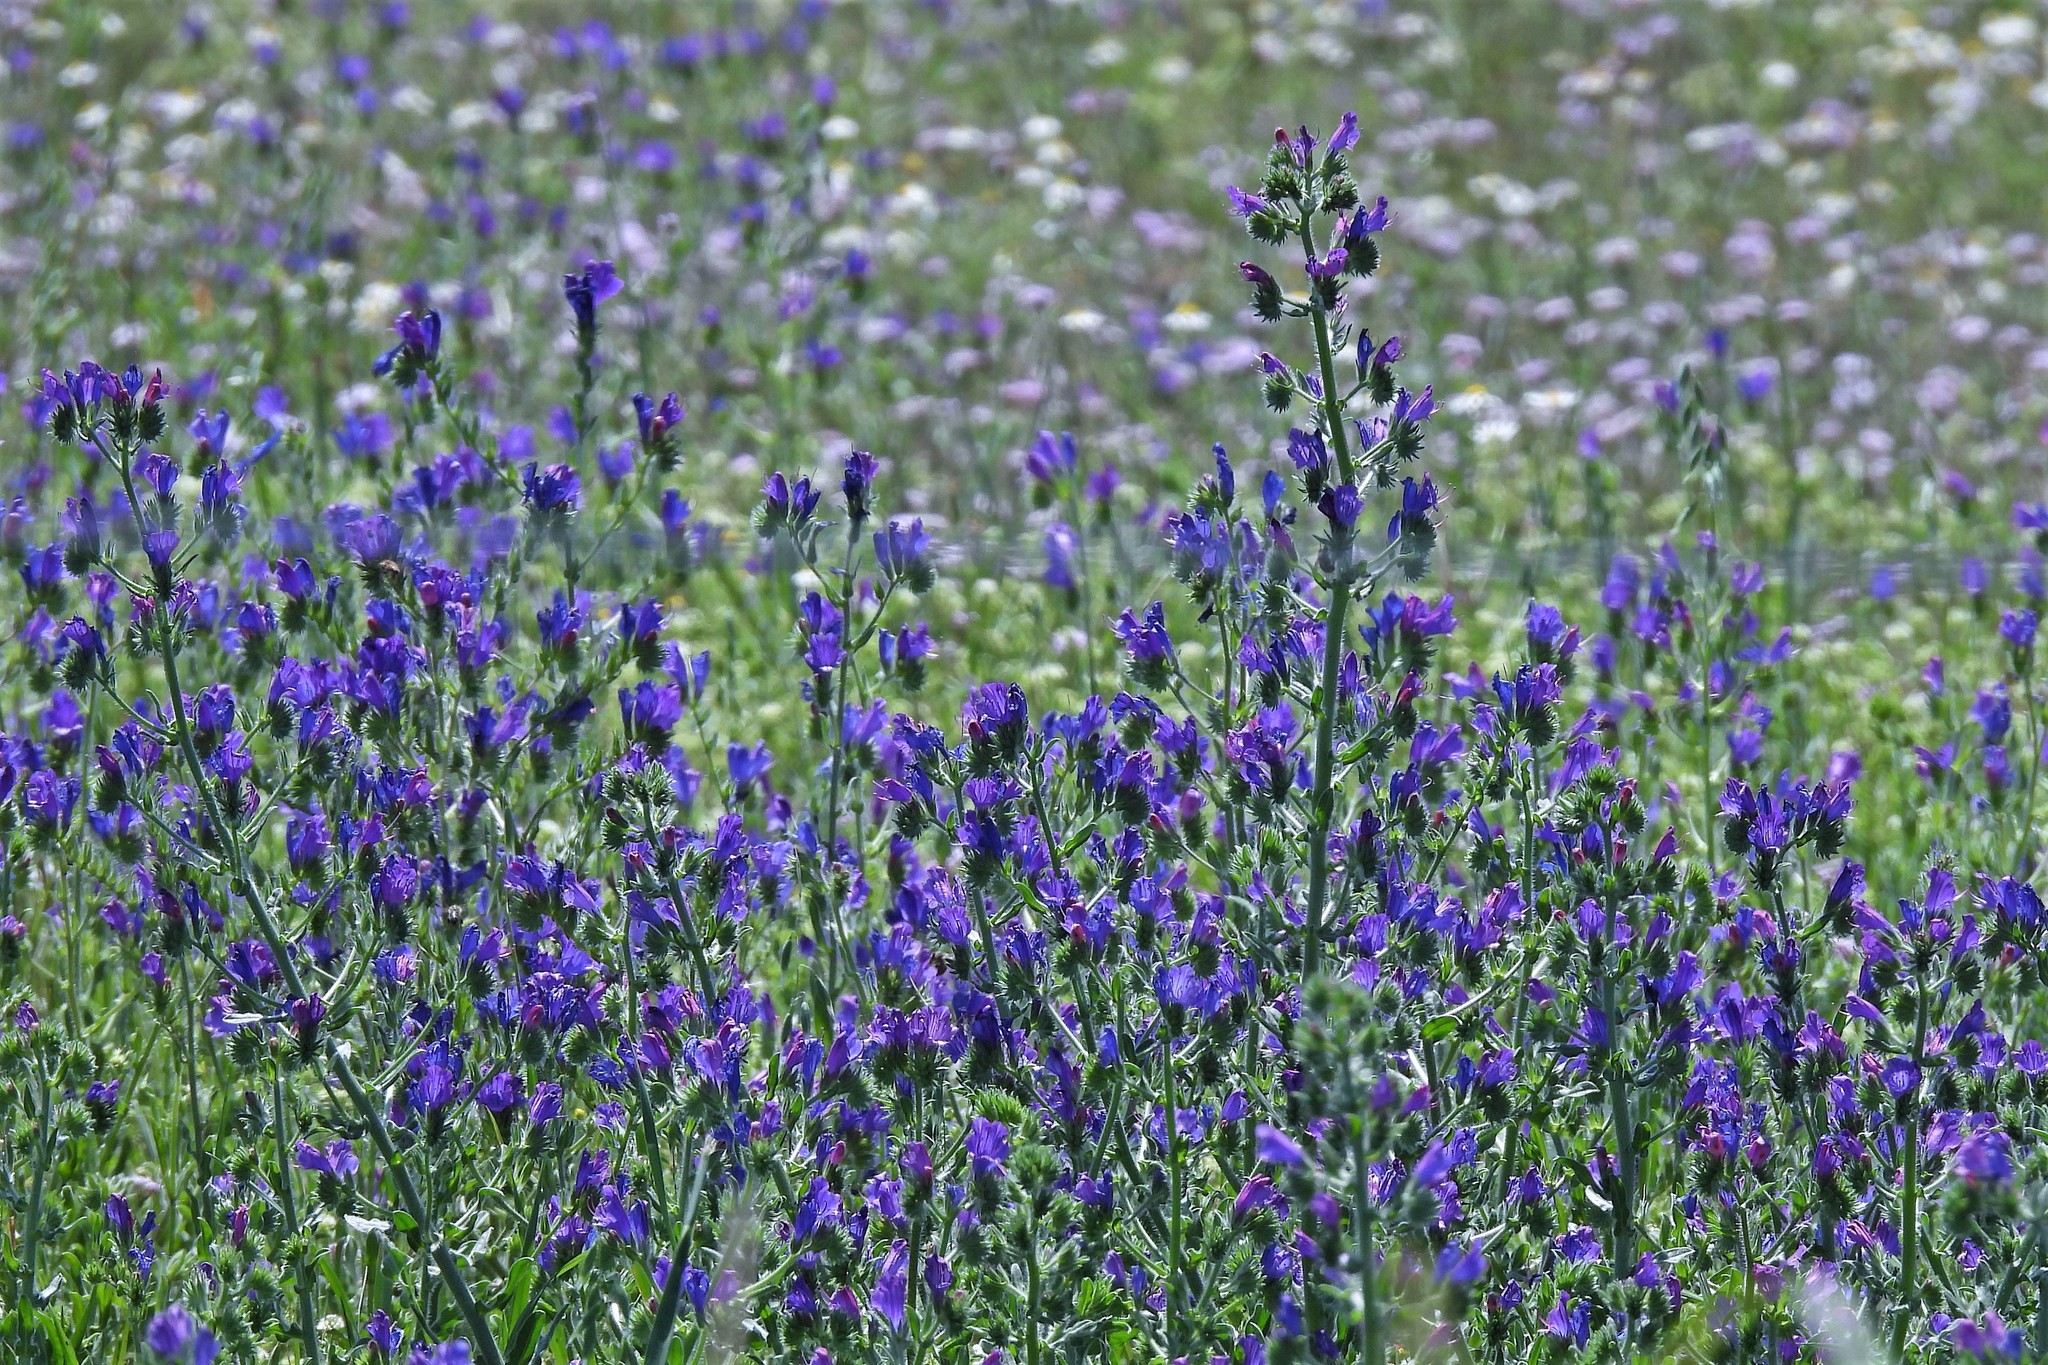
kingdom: Plantae
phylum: Tracheophyta
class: Magnoliopsida
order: Boraginales
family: Boraginaceae
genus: Echium
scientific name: Echium plantagineum
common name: Purple viper's-bugloss
